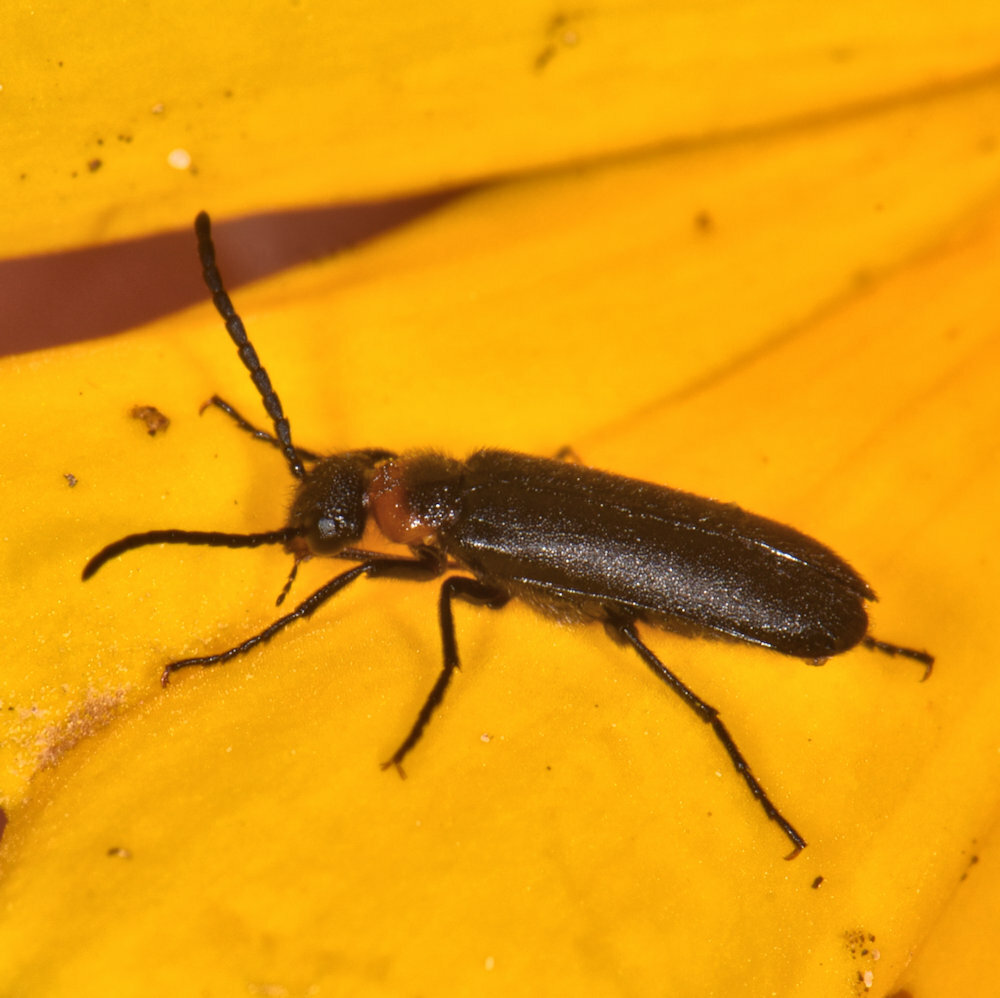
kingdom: Animalia
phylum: Arthropoda
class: Insecta
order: Coleoptera
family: Meloidae
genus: Nemognatha
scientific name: Nemognatha nemorensis
